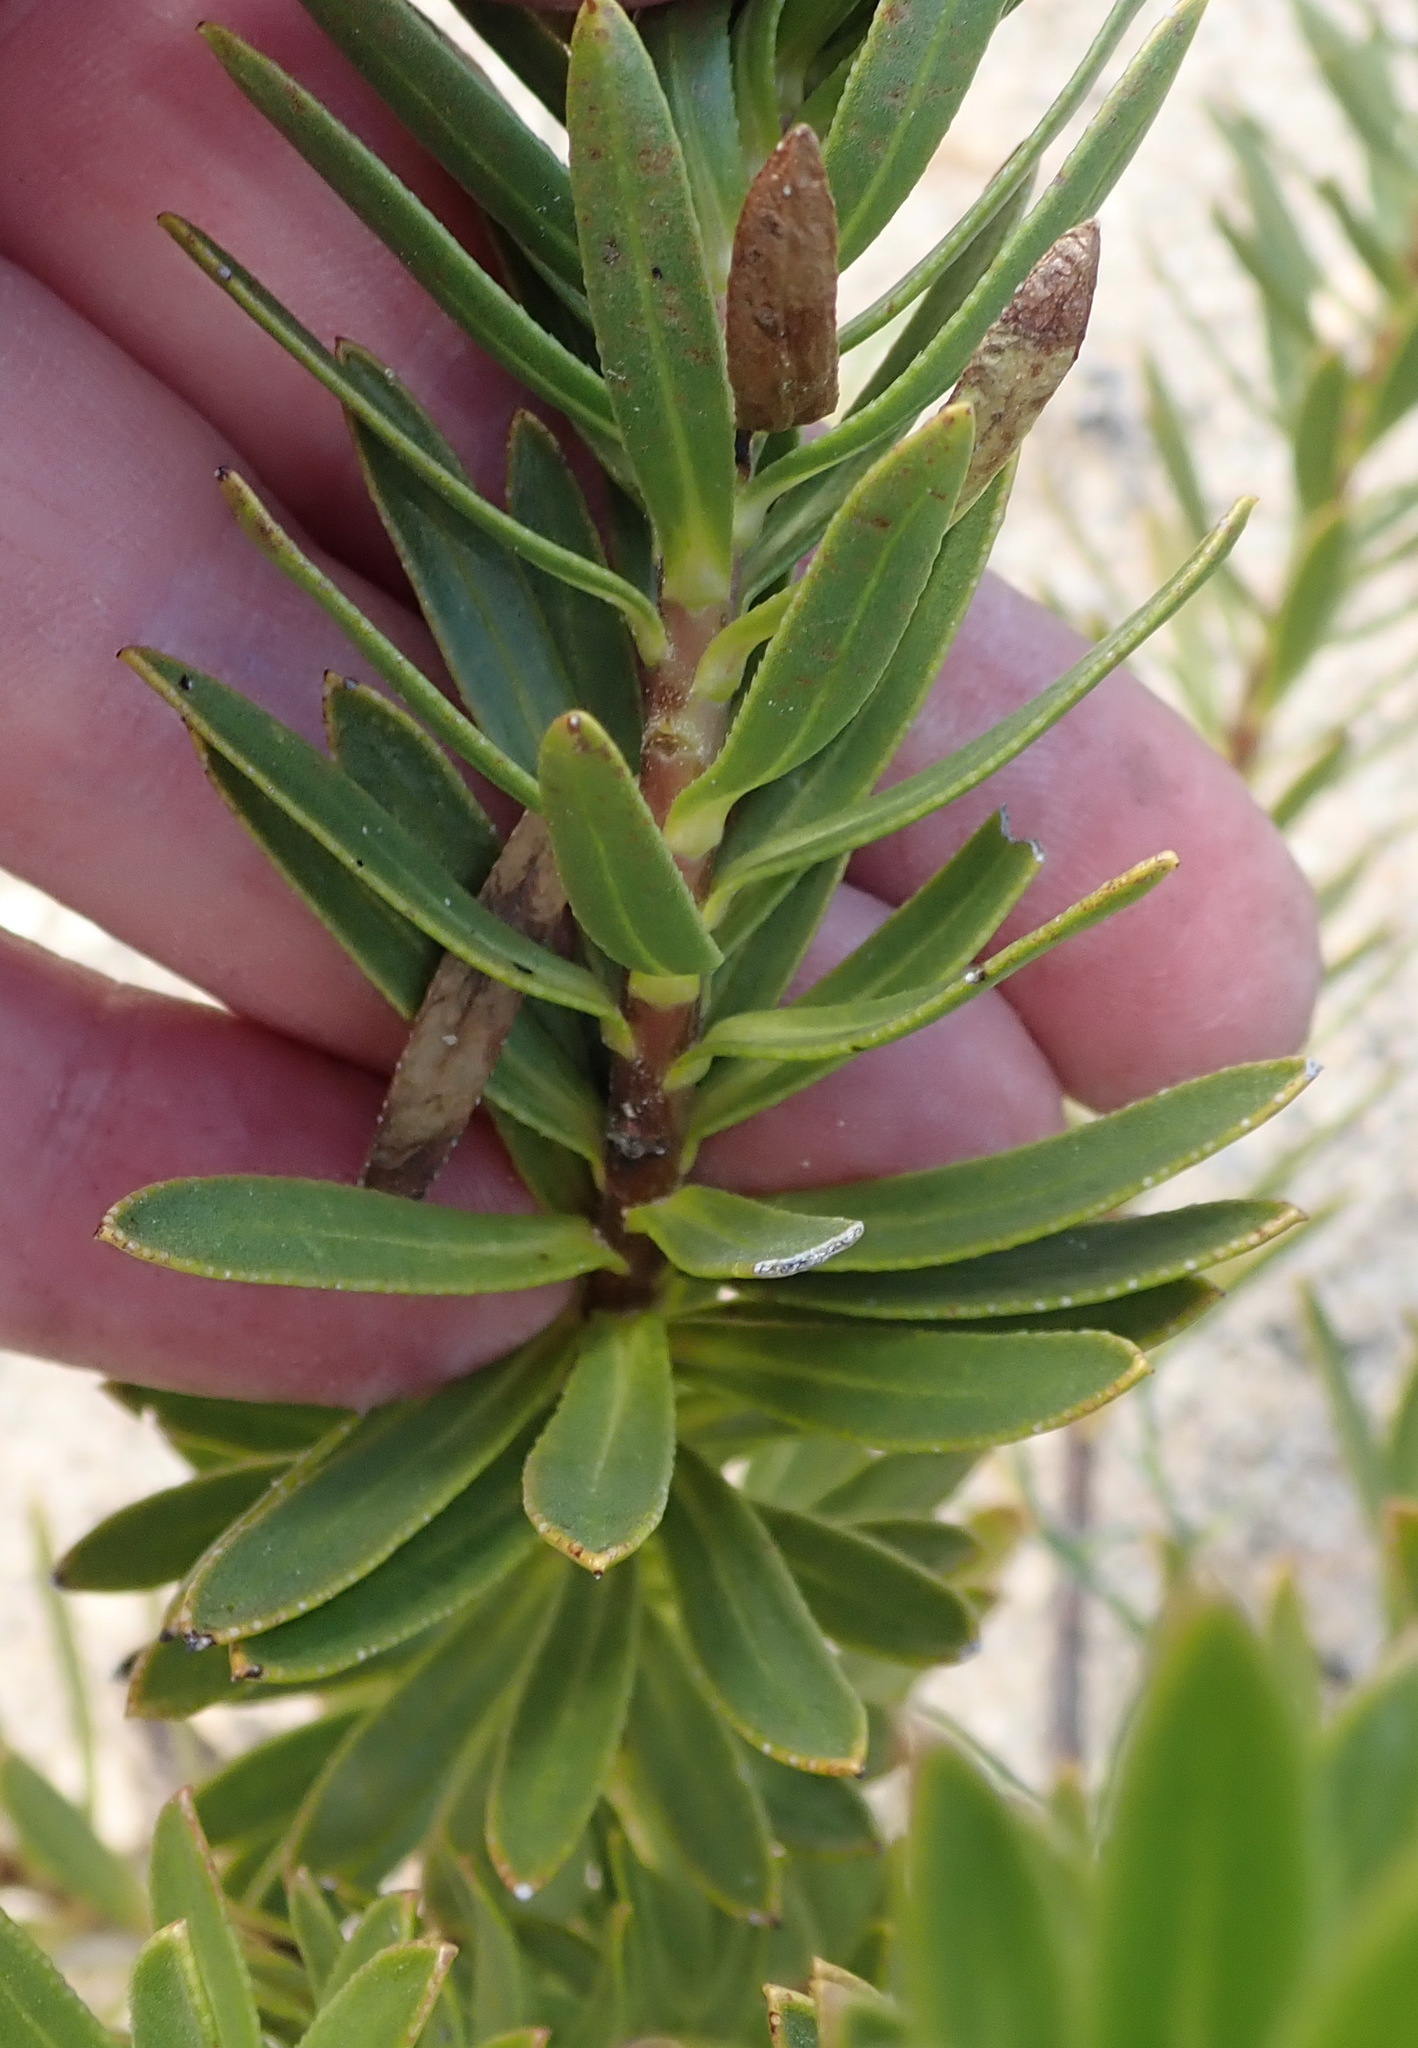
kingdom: Plantae
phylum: Tracheophyta
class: Magnoliopsida
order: Boraginales
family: Boraginaceae
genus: Lobostemon
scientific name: Lobostemon argenteus
